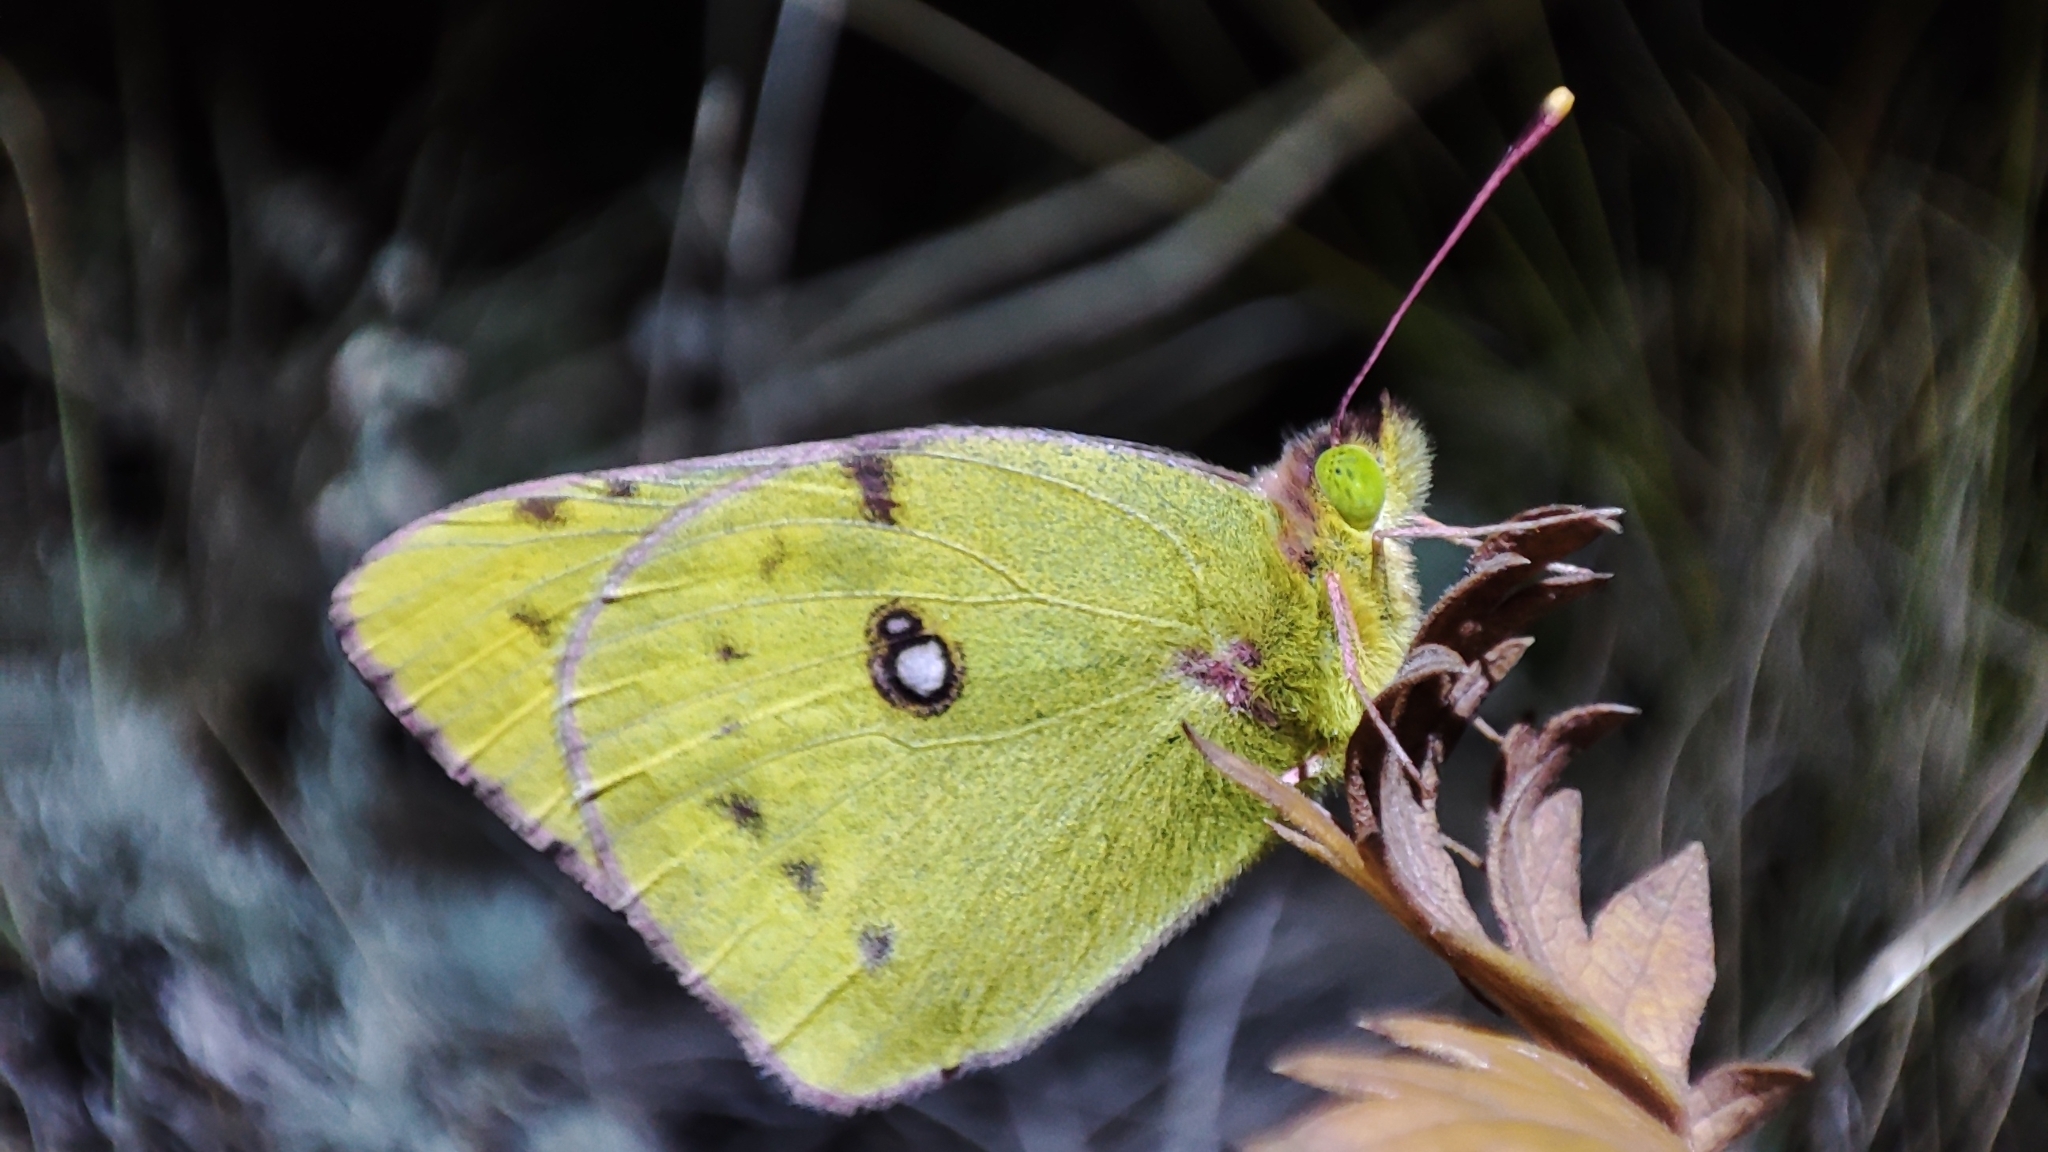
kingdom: Animalia
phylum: Arthropoda
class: Insecta
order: Lepidoptera
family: Pieridae
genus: Colias
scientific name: Colias hyale
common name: Pale clouded yellow
